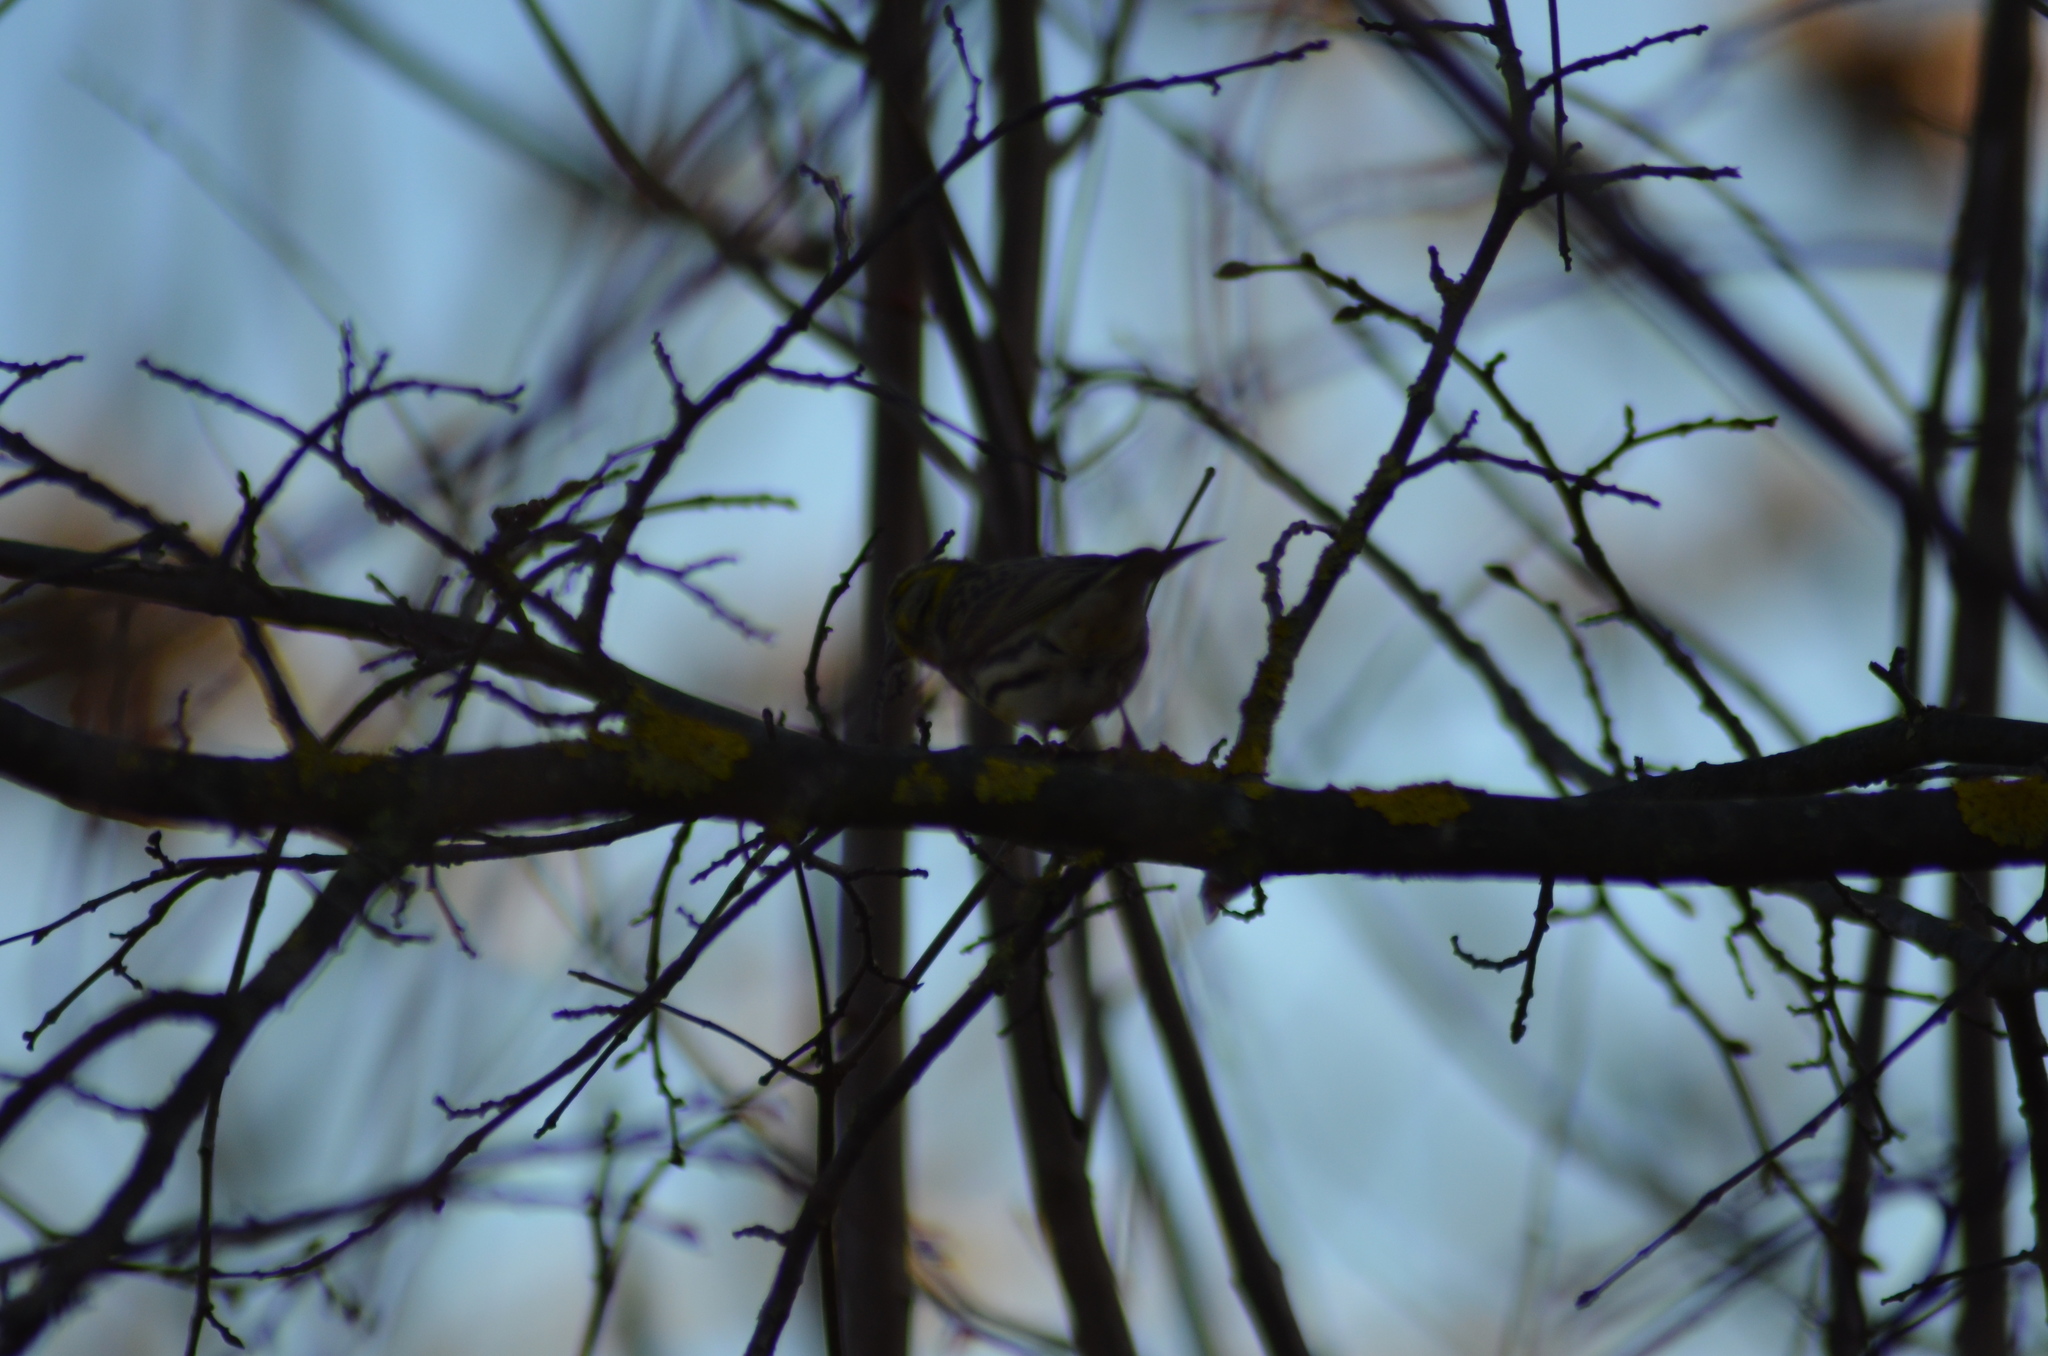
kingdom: Animalia
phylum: Chordata
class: Aves
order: Passeriformes
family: Fringillidae
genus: Serinus
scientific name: Serinus serinus
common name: European serin
